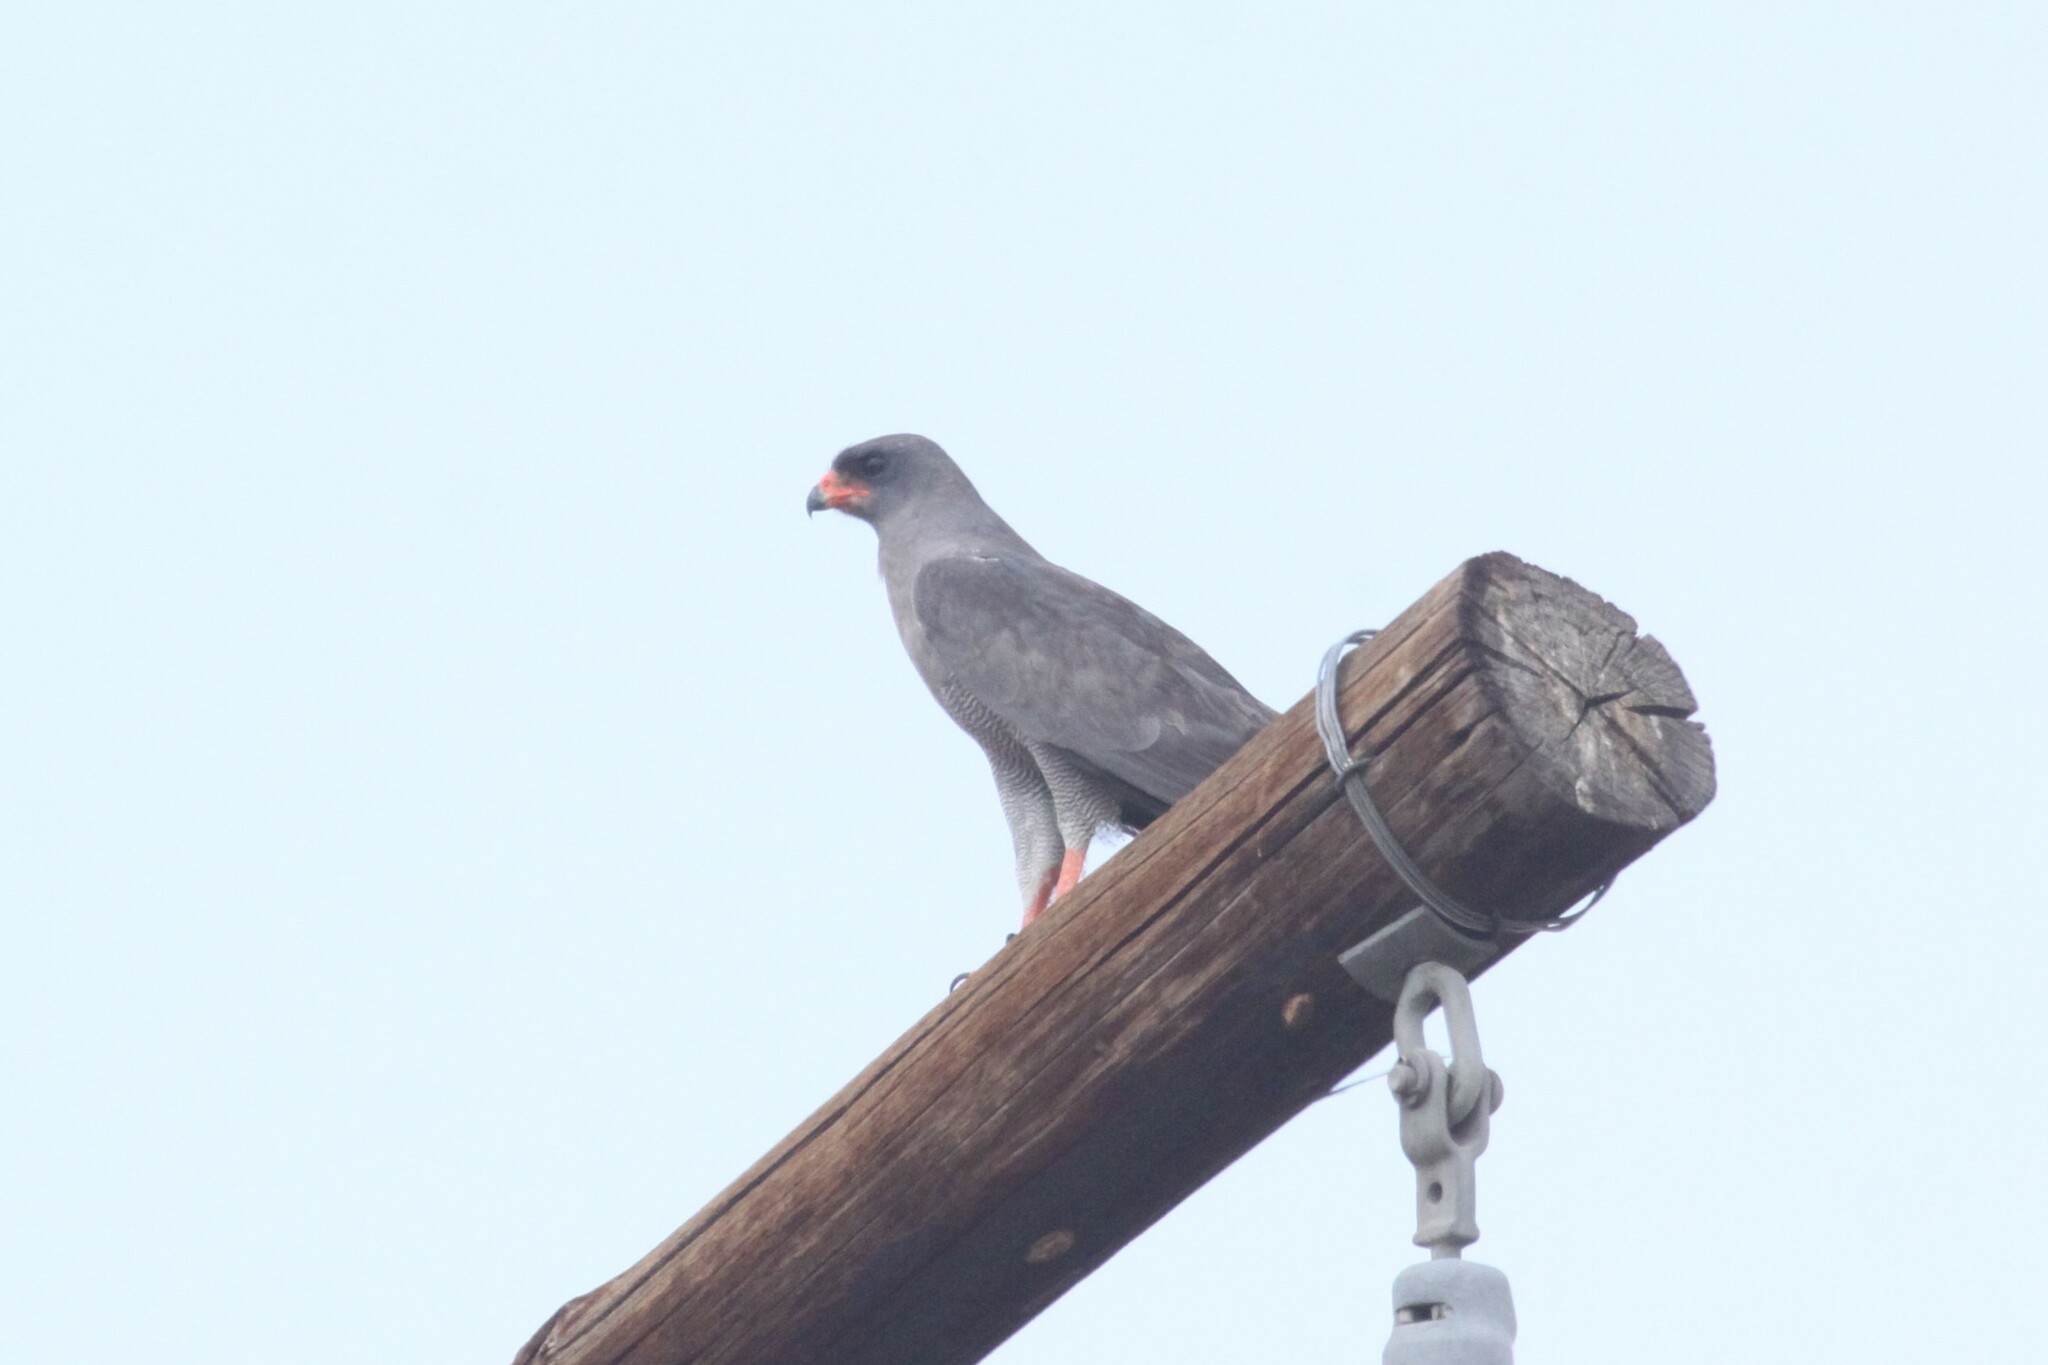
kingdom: Animalia
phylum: Chordata
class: Aves
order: Accipitriformes
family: Accipitridae
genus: Melierax
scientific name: Melierax metabates
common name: Dark chanting-goshawk
